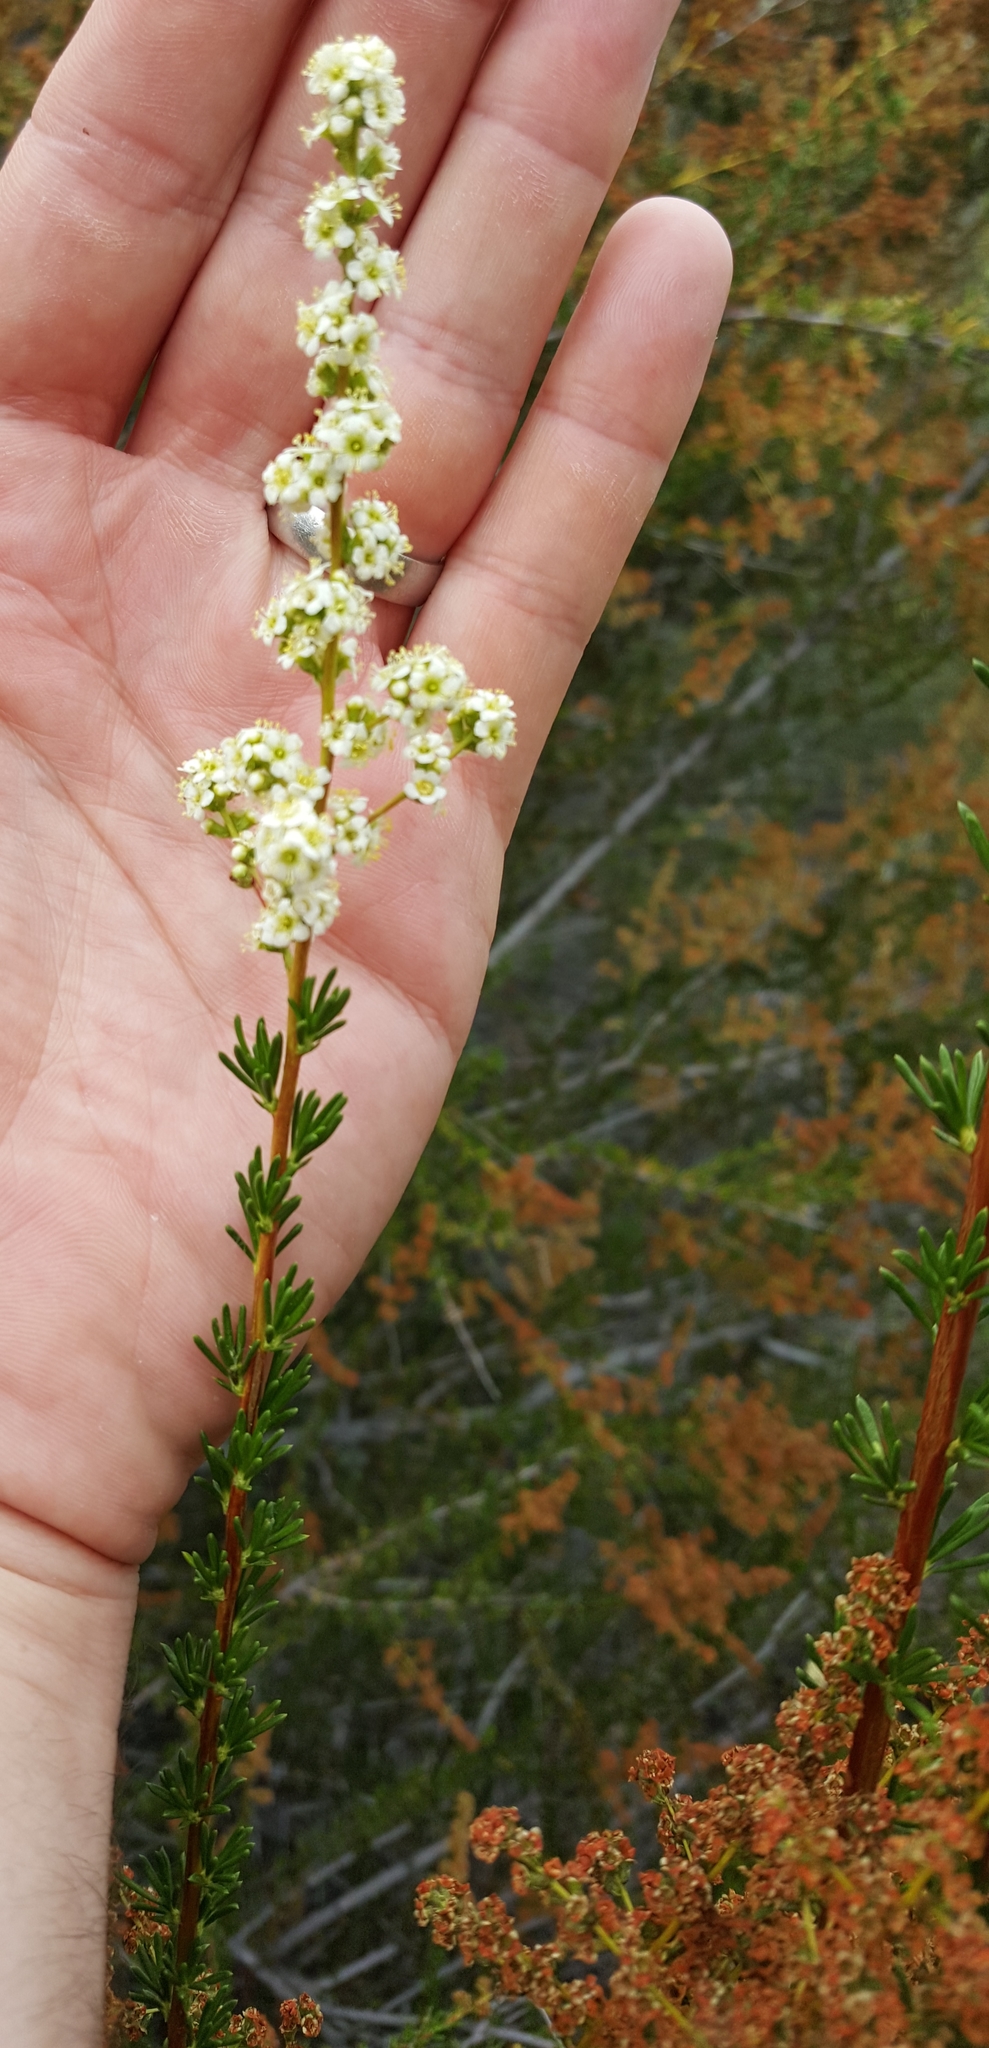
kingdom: Plantae
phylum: Tracheophyta
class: Magnoliopsida
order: Rosales
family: Rosaceae
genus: Adenostoma
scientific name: Adenostoma fasciculatum
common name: Chamise
